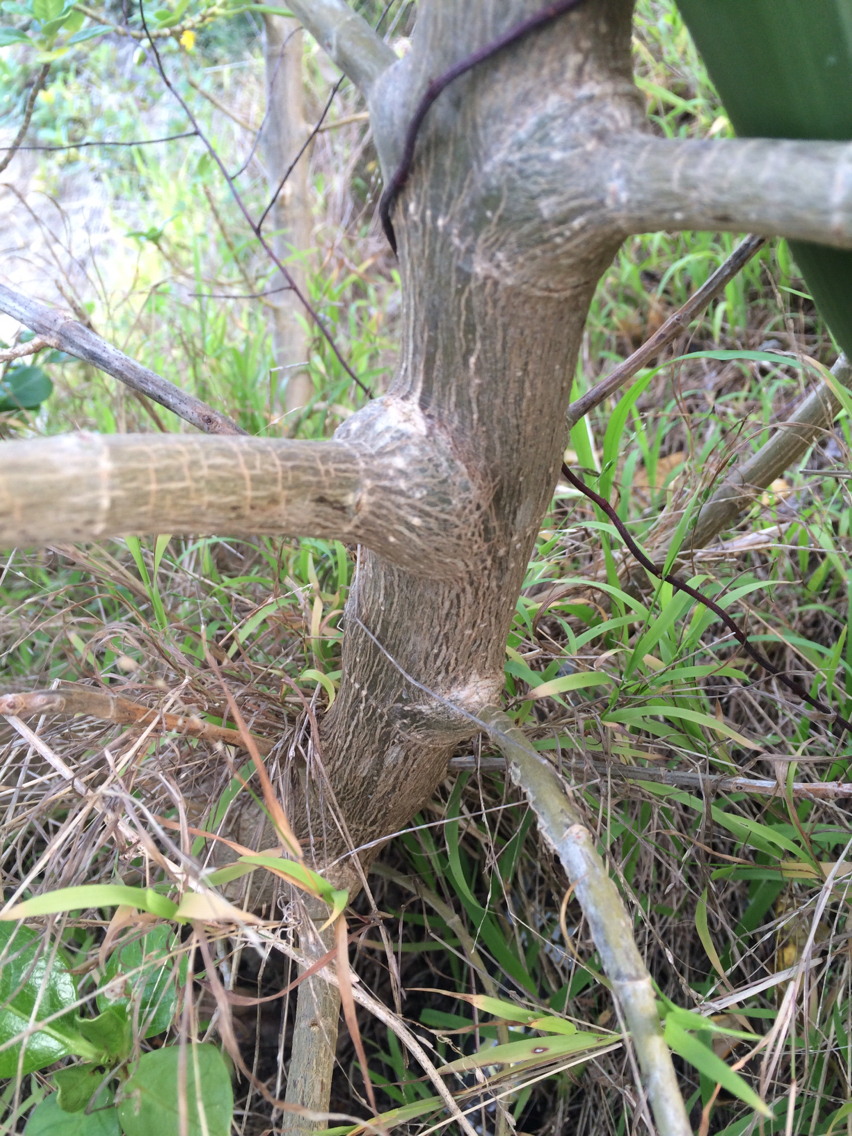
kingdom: Plantae
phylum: Tracheophyta
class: Magnoliopsida
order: Gentianales
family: Rubiaceae
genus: Coprosma
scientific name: Coprosma repens
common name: Tree bedstraw
